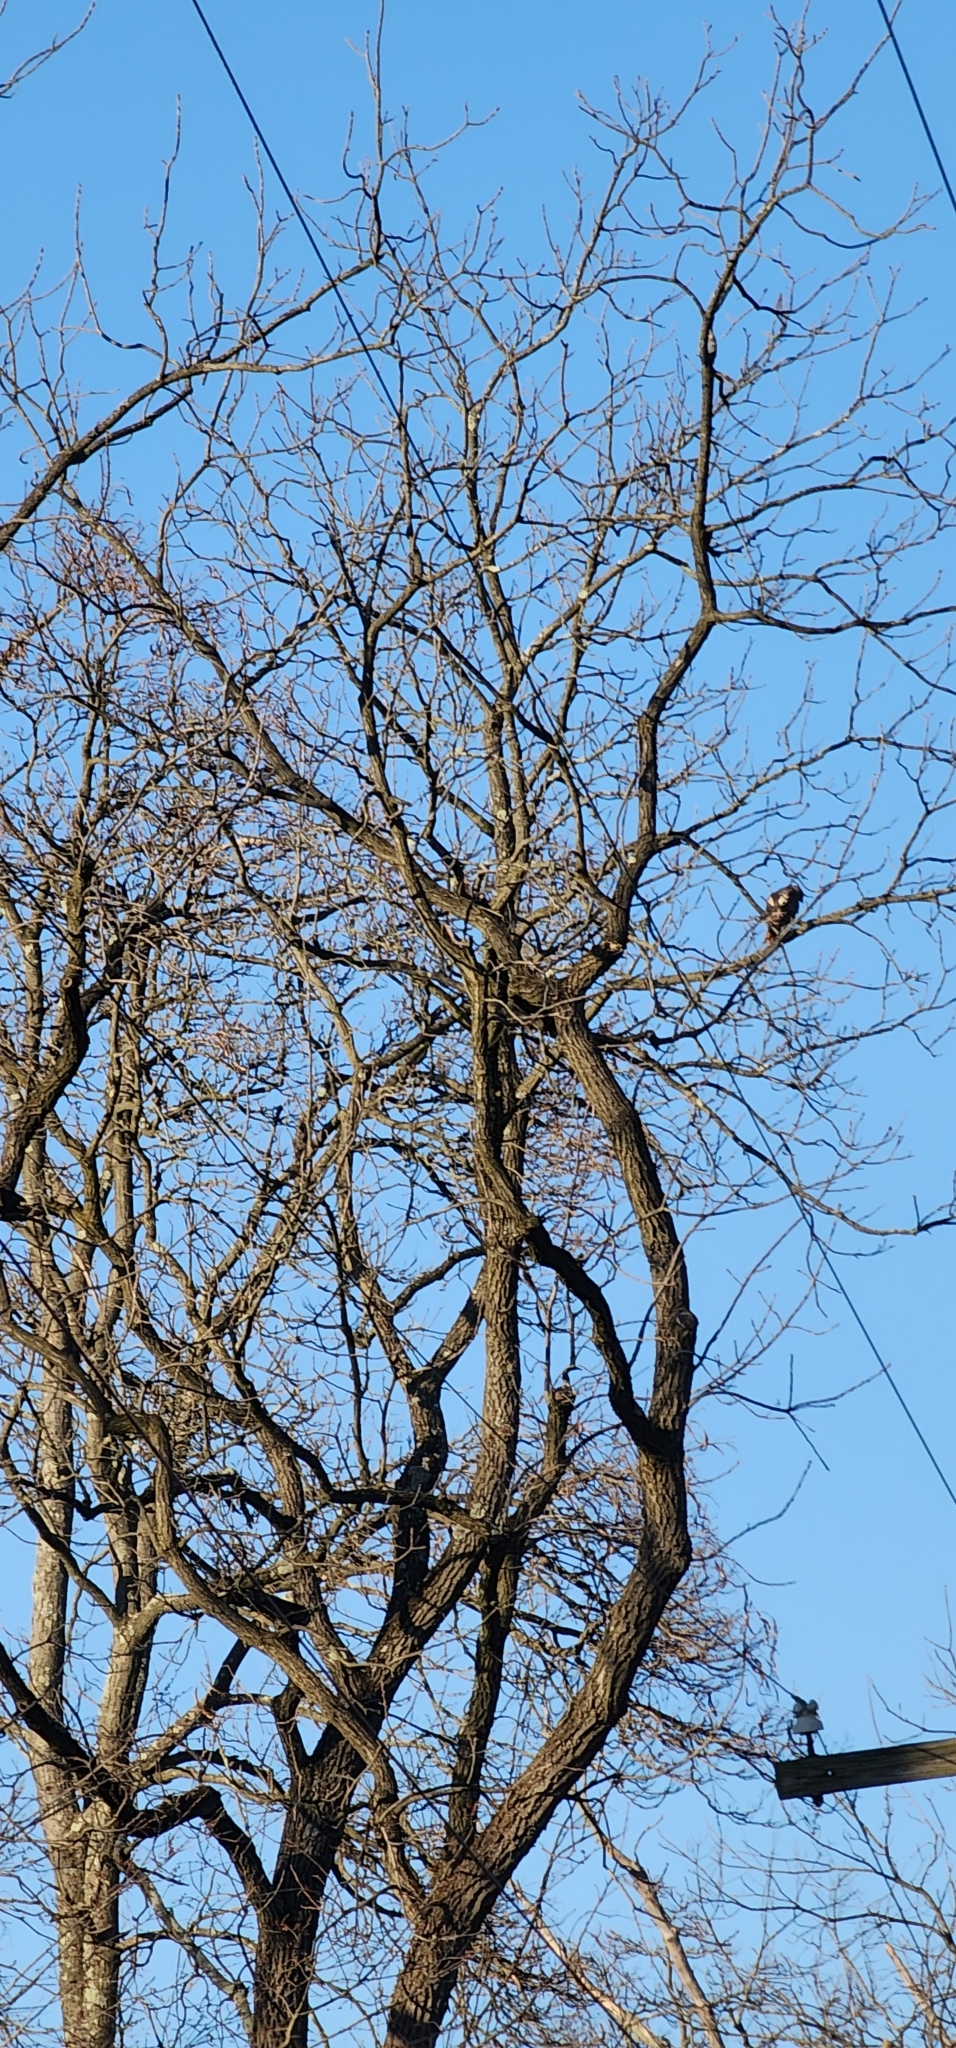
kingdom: Animalia
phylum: Chordata
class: Aves
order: Accipitriformes
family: Accipitridae
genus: Buteo
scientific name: Buteo jamaicensis
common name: Red-tailed hawk
